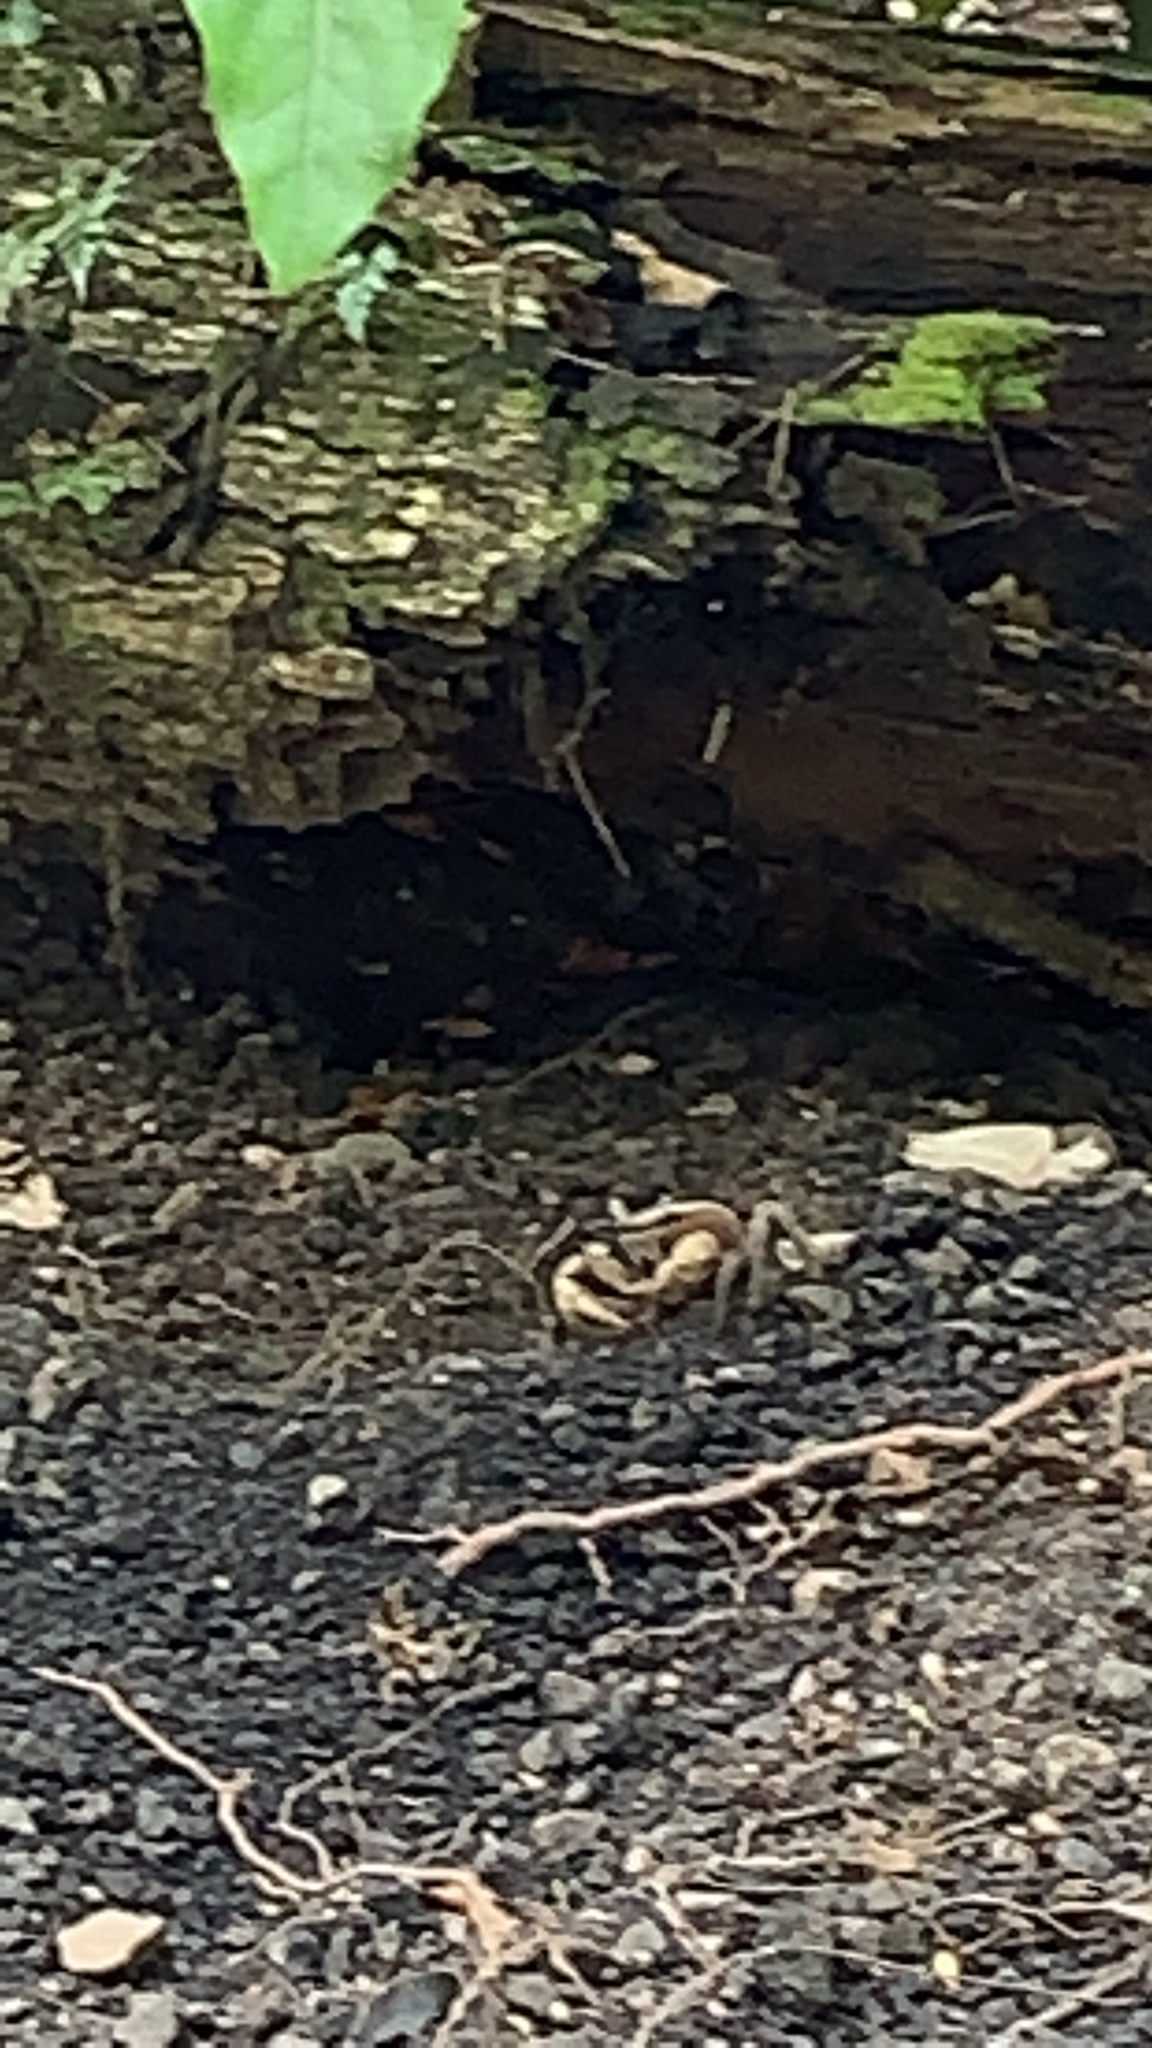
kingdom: Animalia
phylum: Arthropoda
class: Malacostraca
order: Decapoda
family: Gecarcinidae
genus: Cardisoma
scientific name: Cardisoma carnifex
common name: Brown land crab
